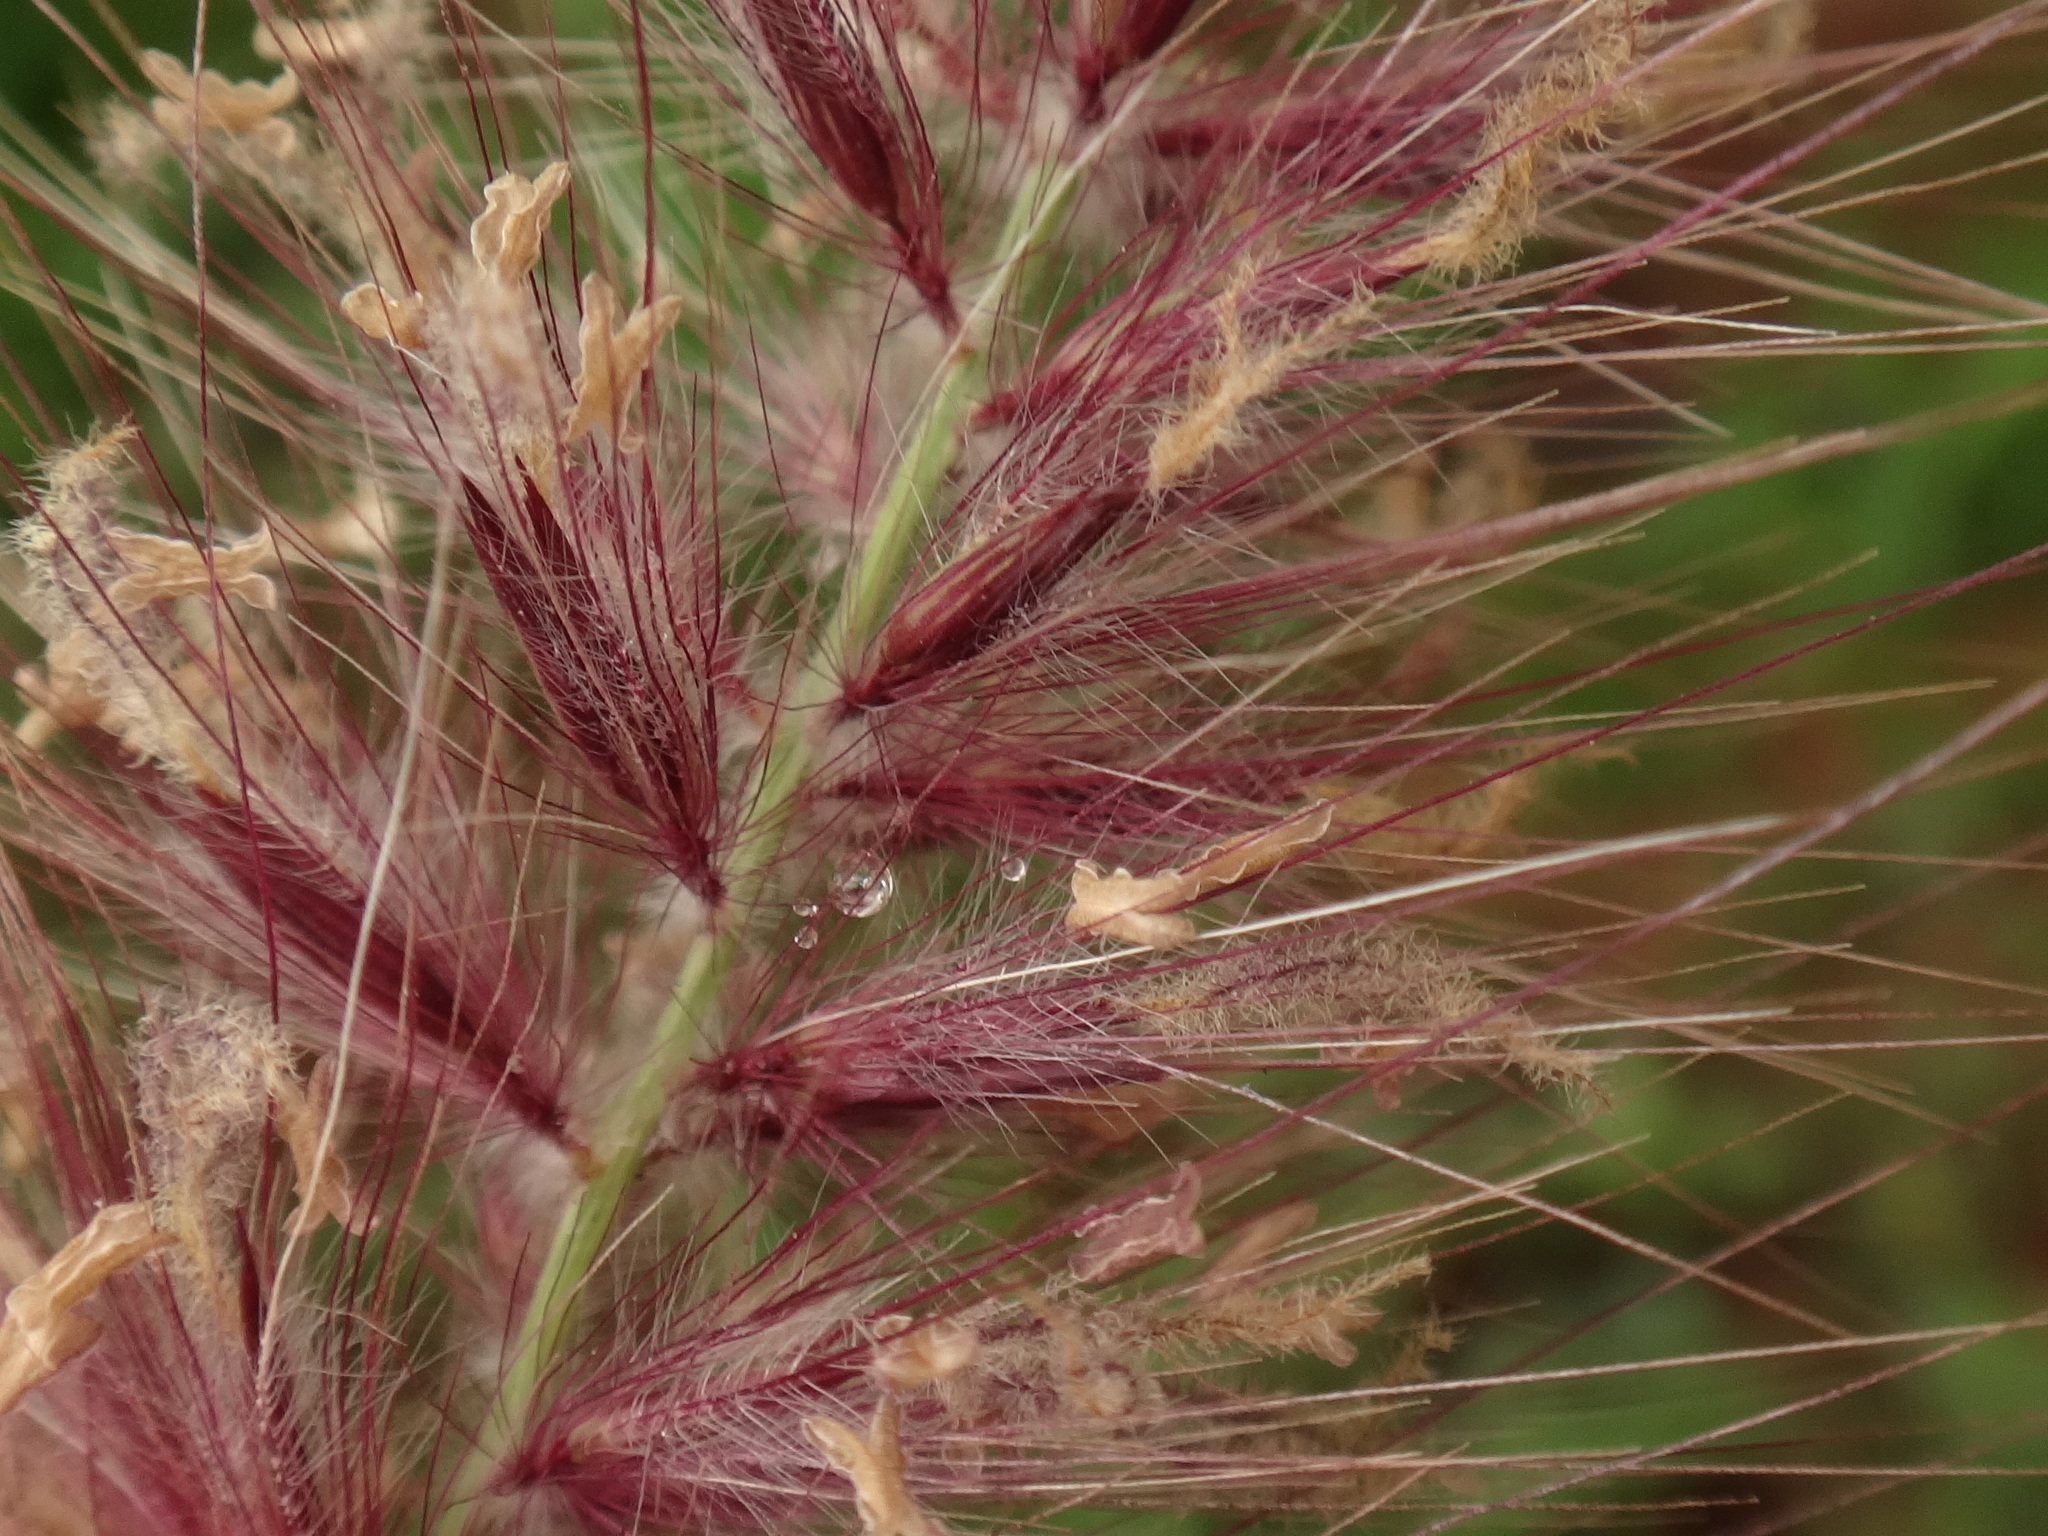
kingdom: Plantae
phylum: Tracheophyta
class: Liliopsida
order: Poales
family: Poaceae
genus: Cenchrus
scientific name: Cenchrus setaceus
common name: Crimson fountaingrass
